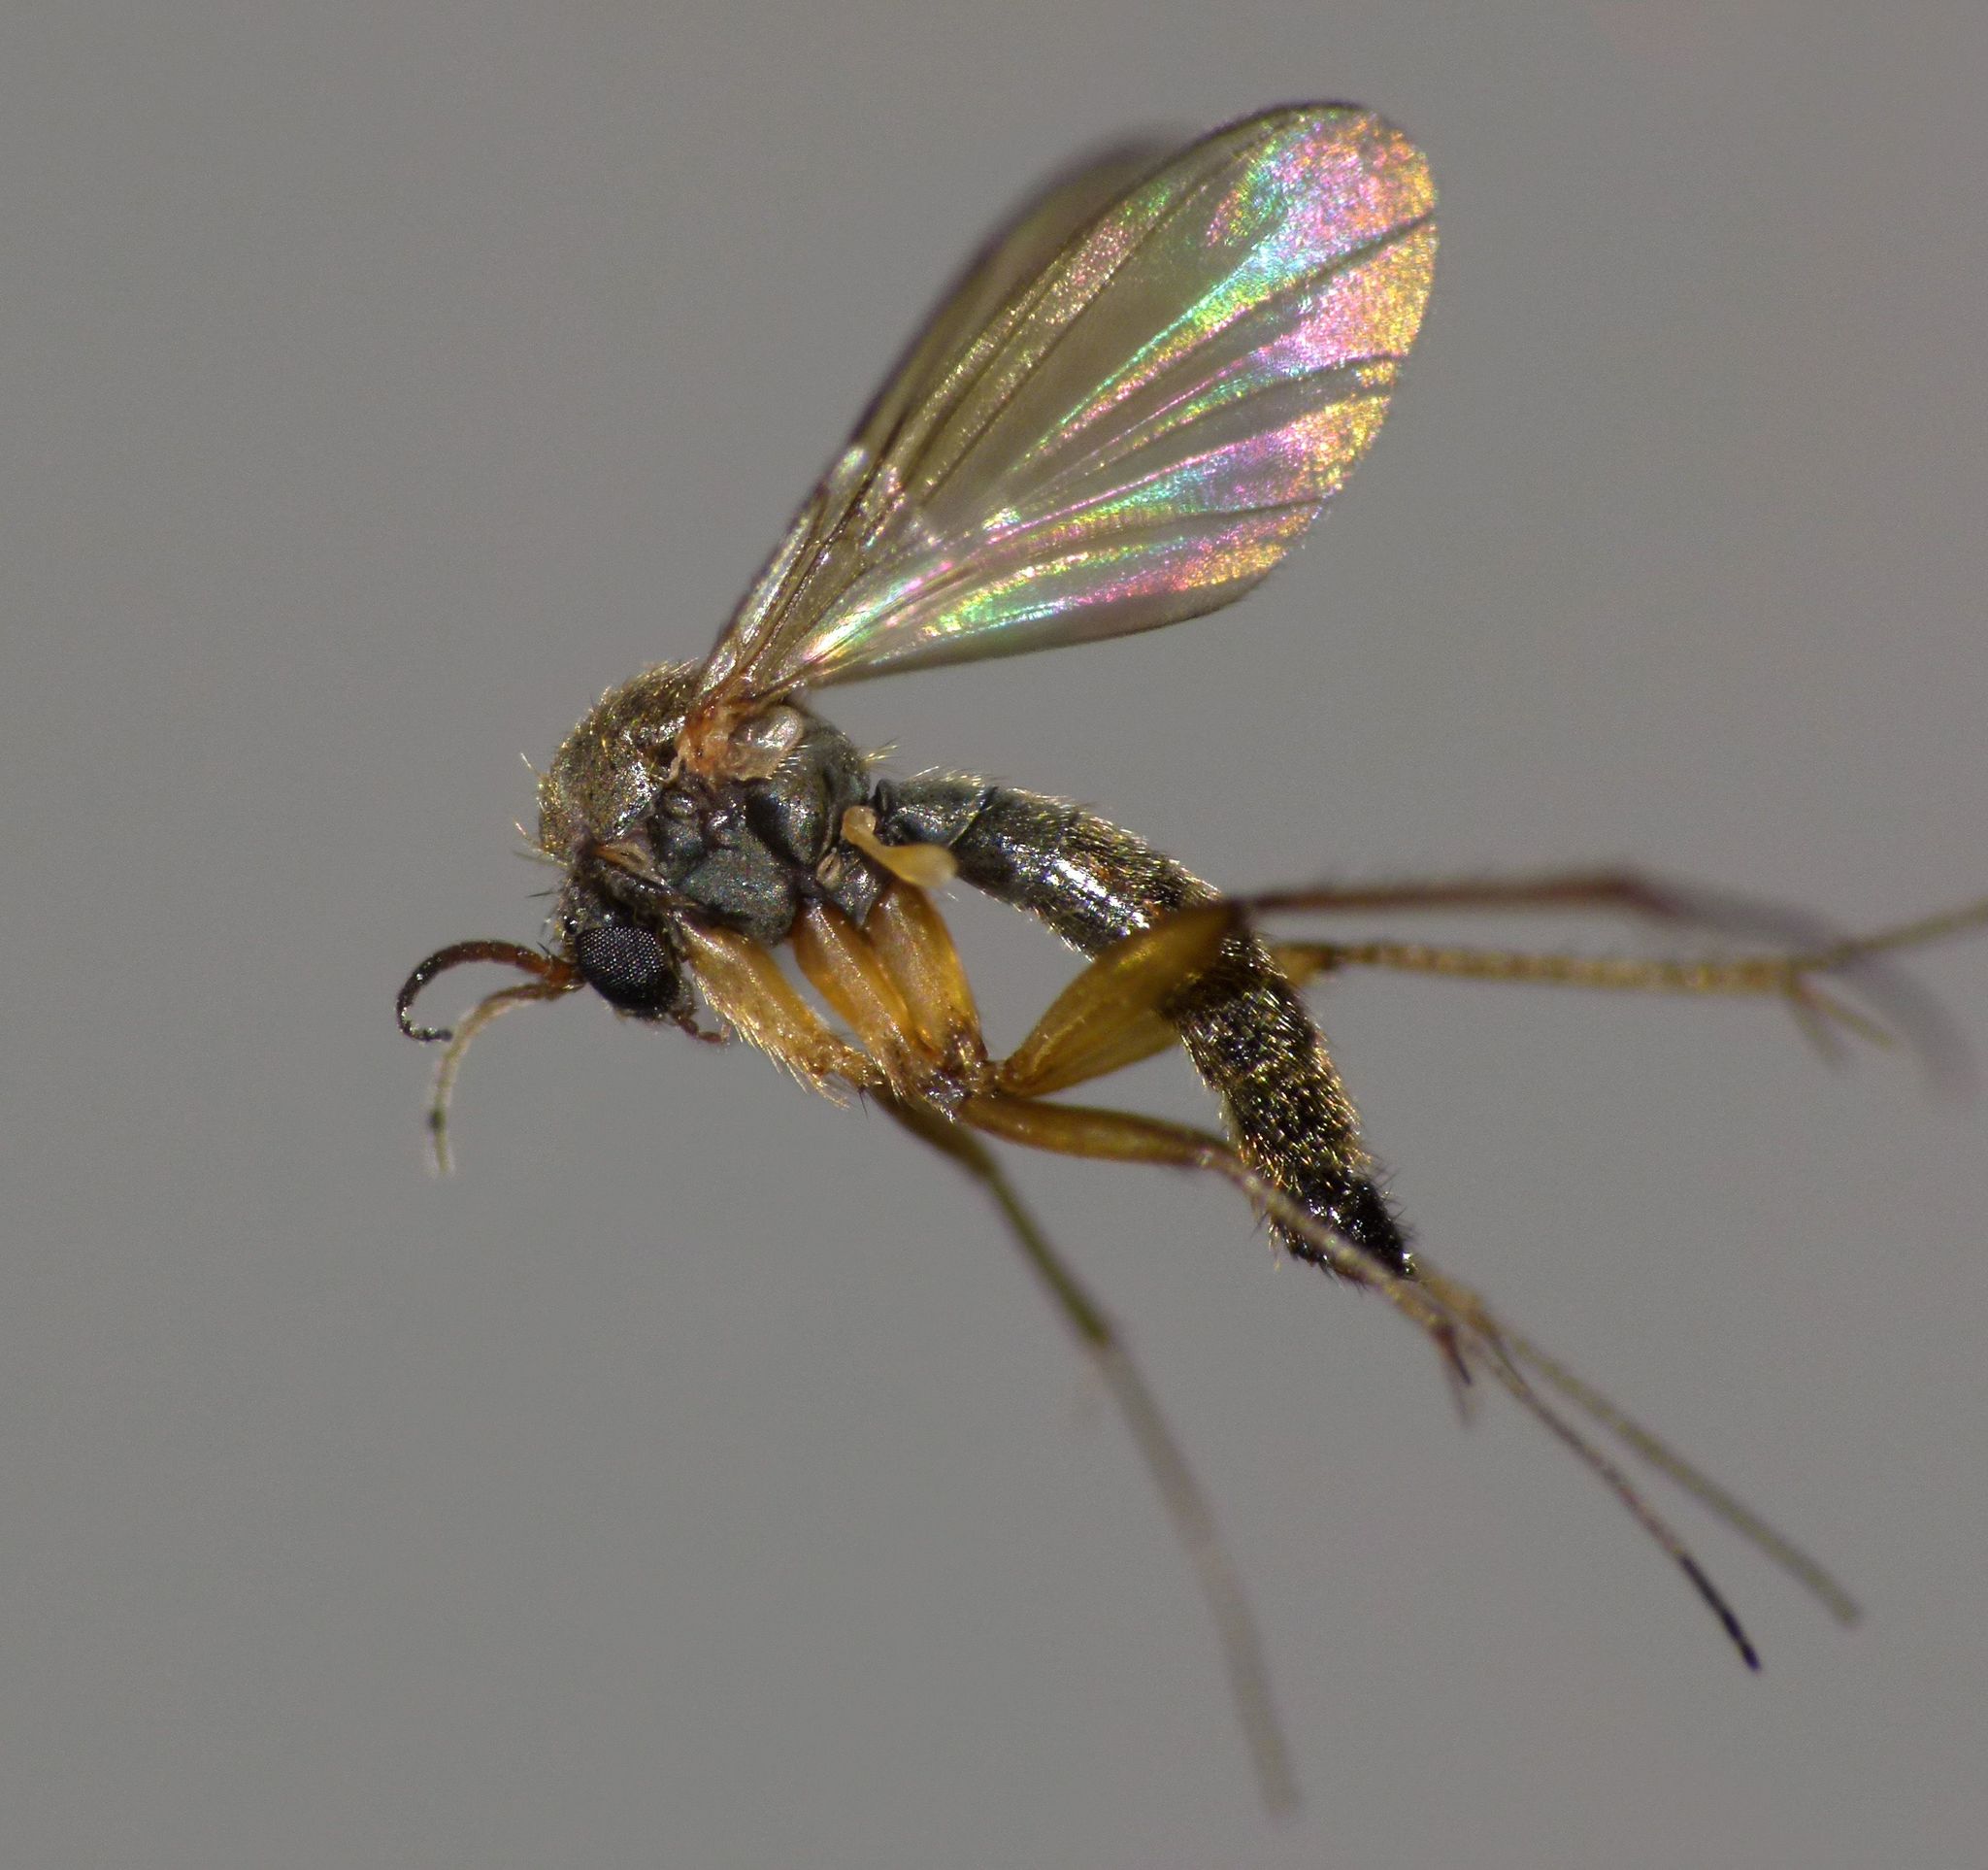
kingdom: Animalia
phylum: Arthropoda
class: Insecta
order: Diptera
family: Mycetophilidae
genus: Parvicellula
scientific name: Parvicellula gracilis
